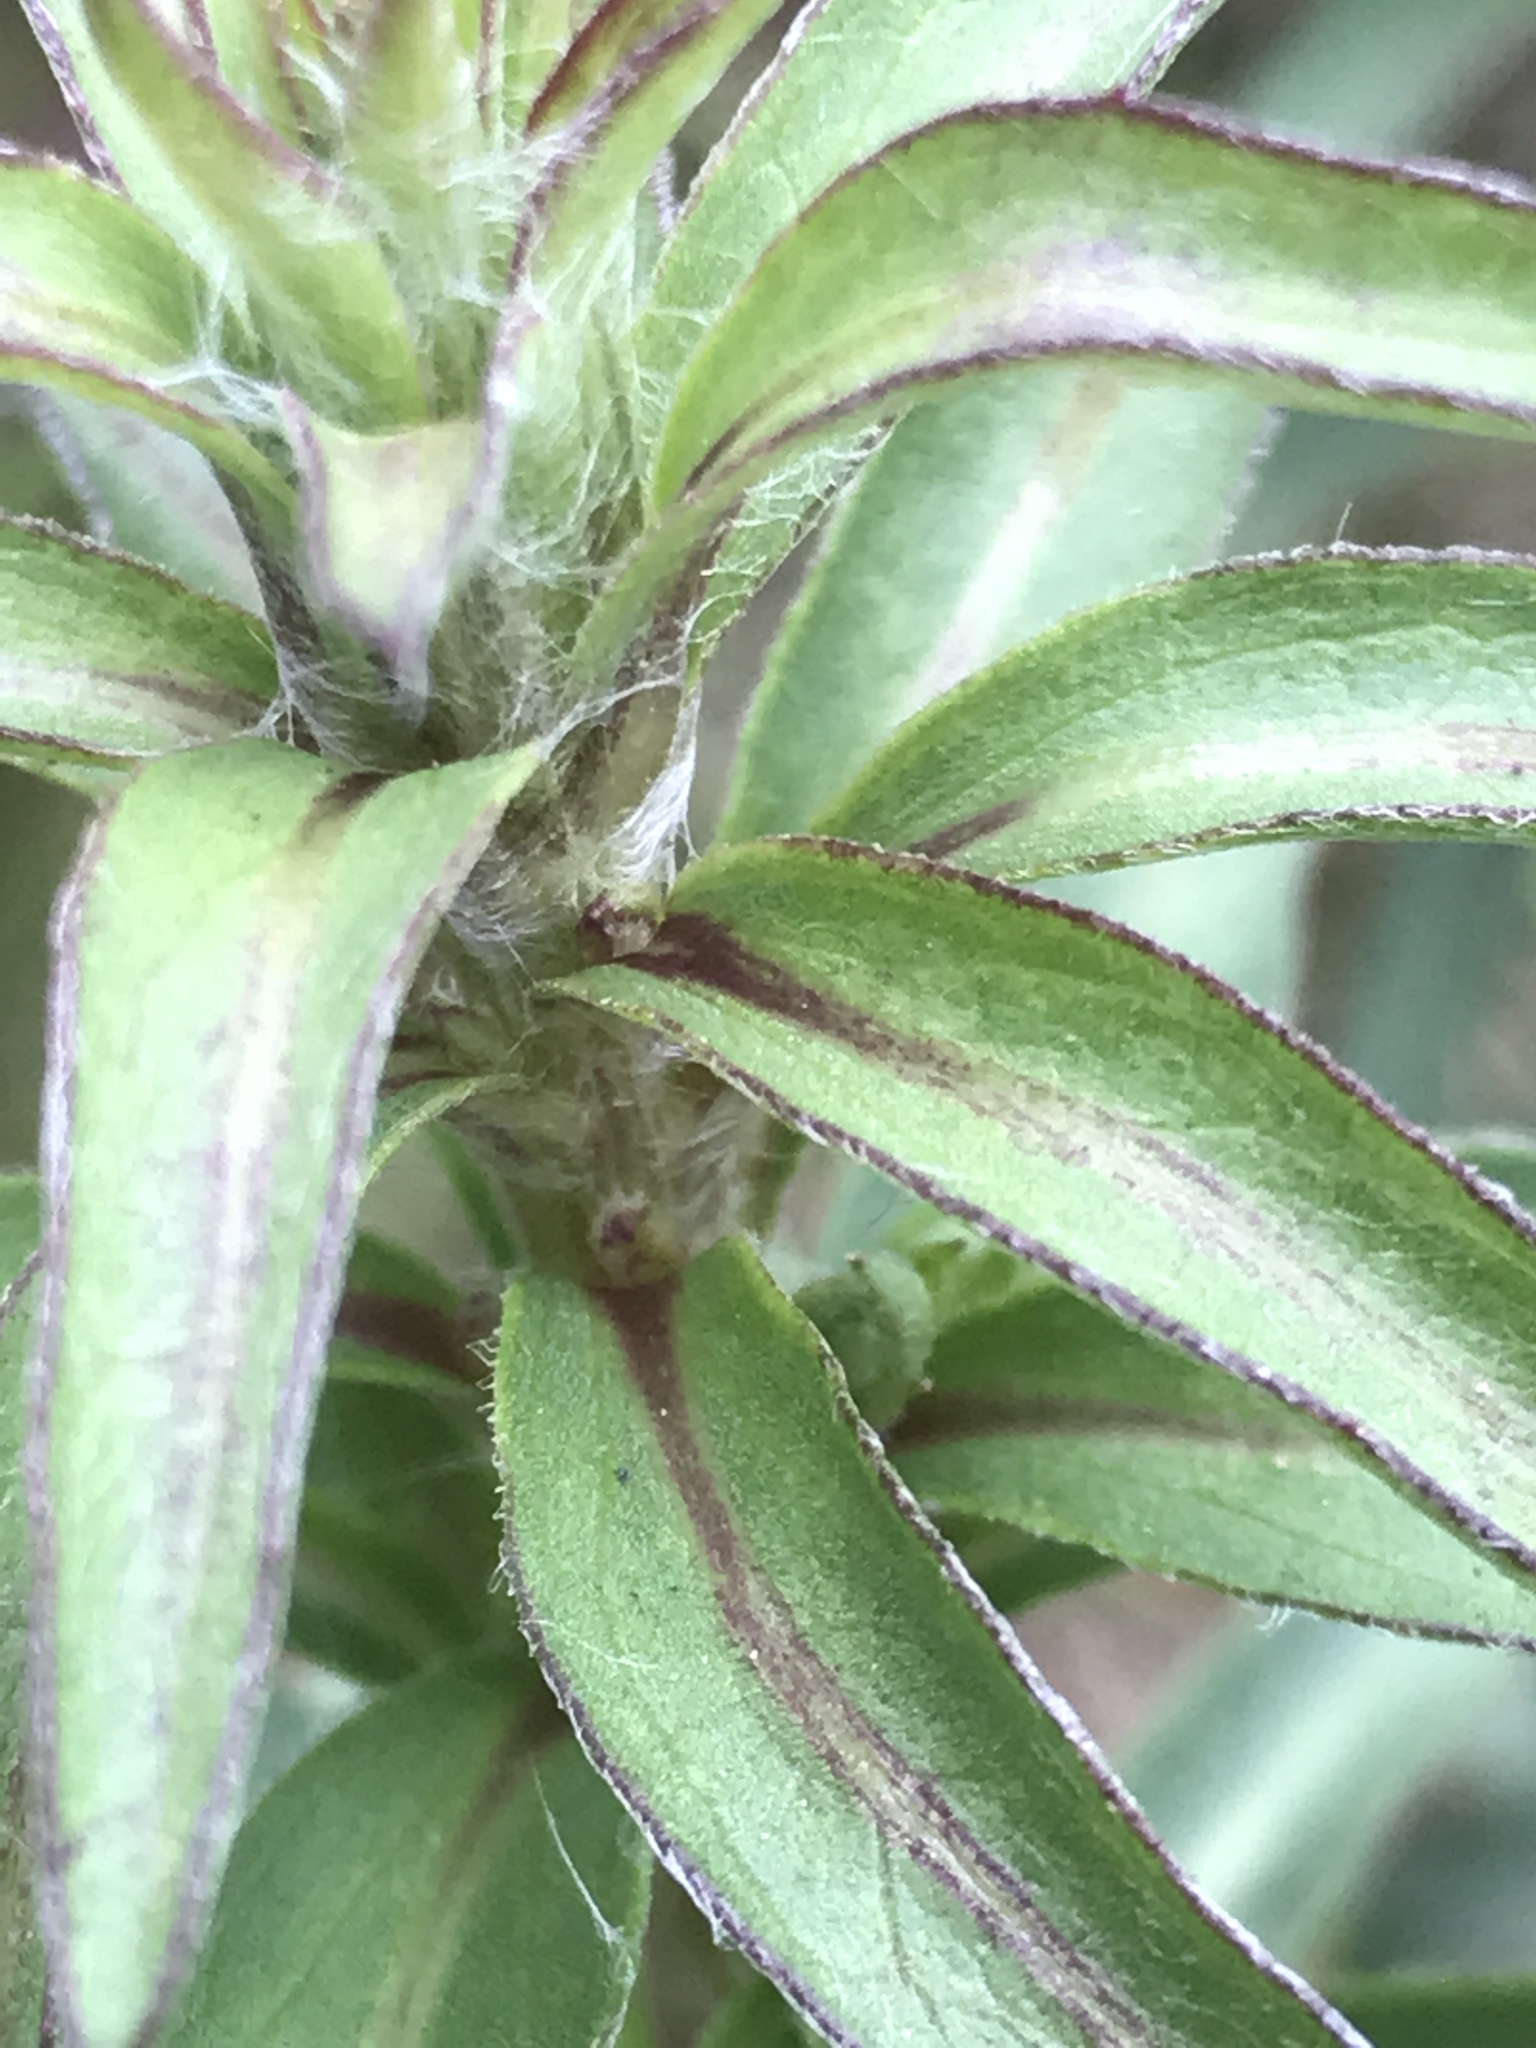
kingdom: Plantae
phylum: Tracheophyta
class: Magnoliopsida
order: Asterales
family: Asteraceae
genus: Chrysopsis
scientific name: Chrysopsis mariana
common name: Maryland golden-aster
